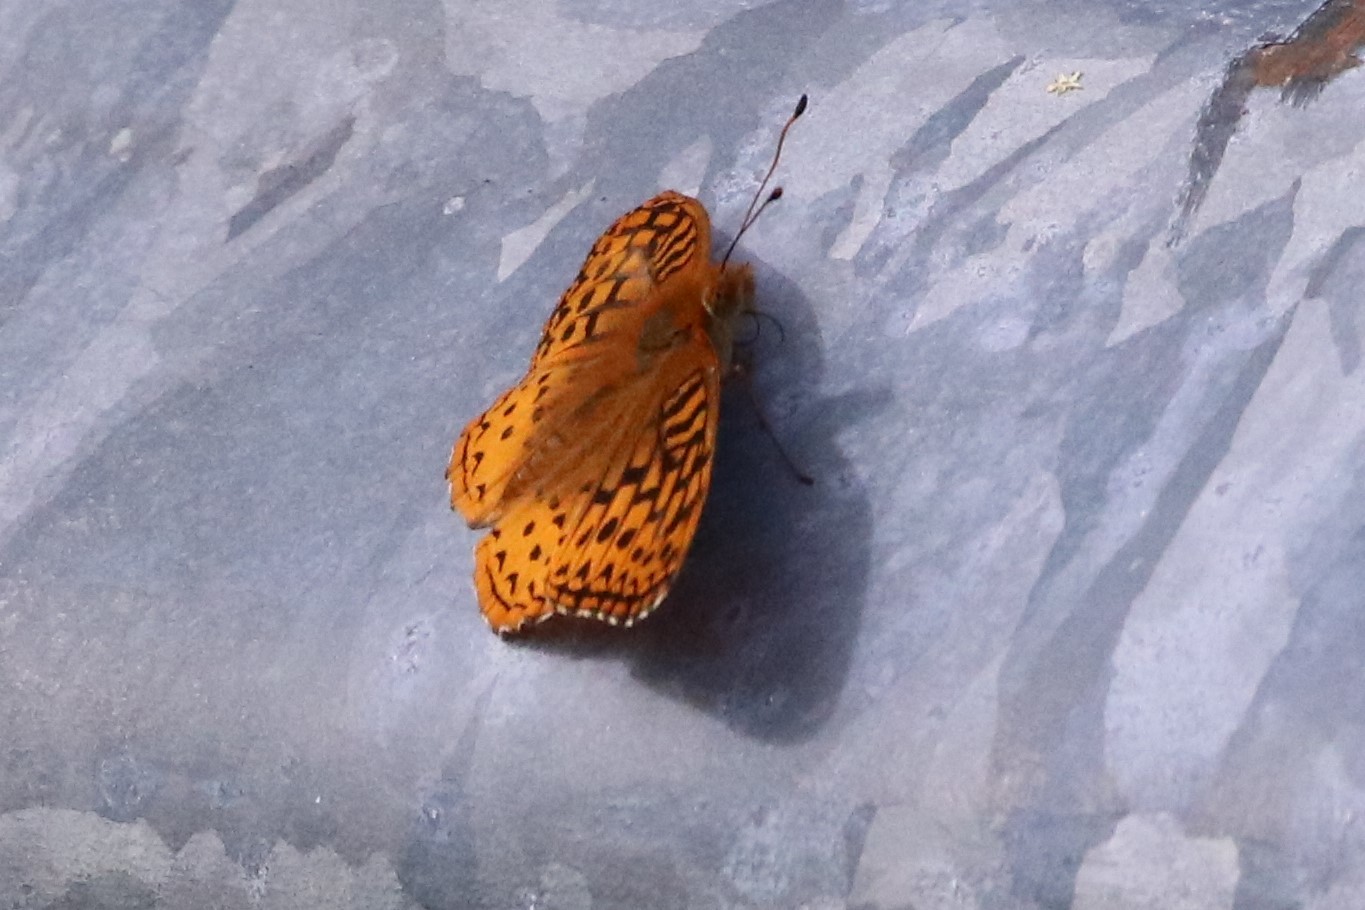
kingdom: Animalia
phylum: Arthropoda
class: Insecta
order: Lepidoptera
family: Nymphalidae
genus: Speyeria
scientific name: Speyeria cybele
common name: Great spangled fritillary
